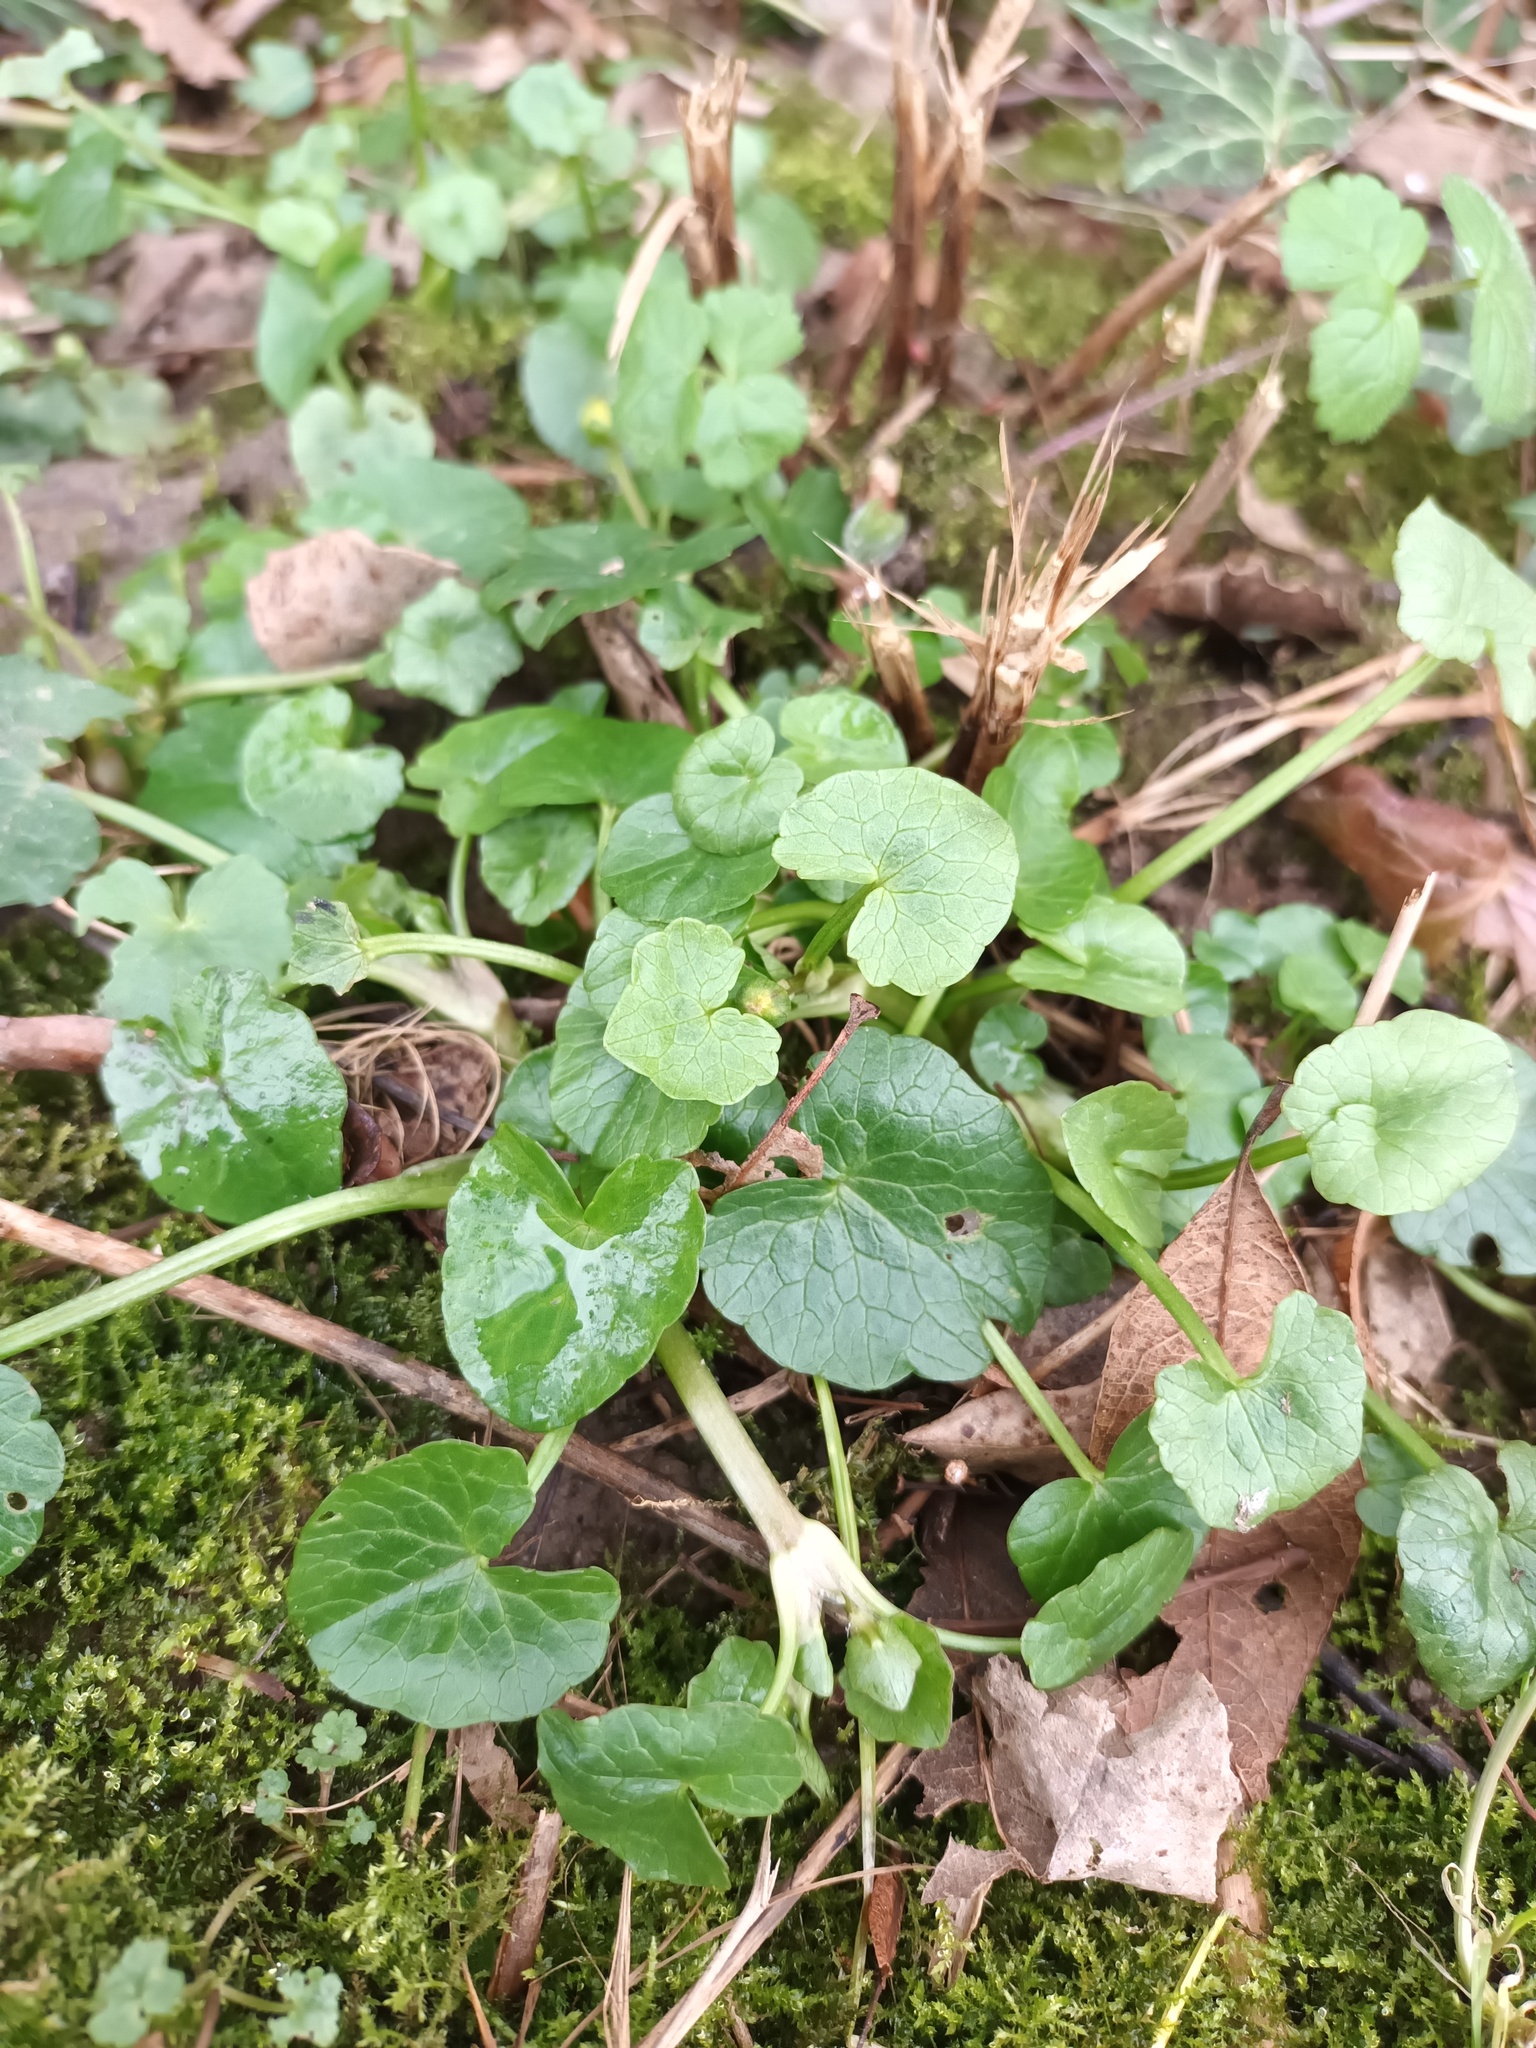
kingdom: Plantae
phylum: Tracheophyta
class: Magnoliopsida
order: Ranunculales
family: Ranunculaceae
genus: Ficaria
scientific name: Ficaria verna
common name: Lesser celandine
